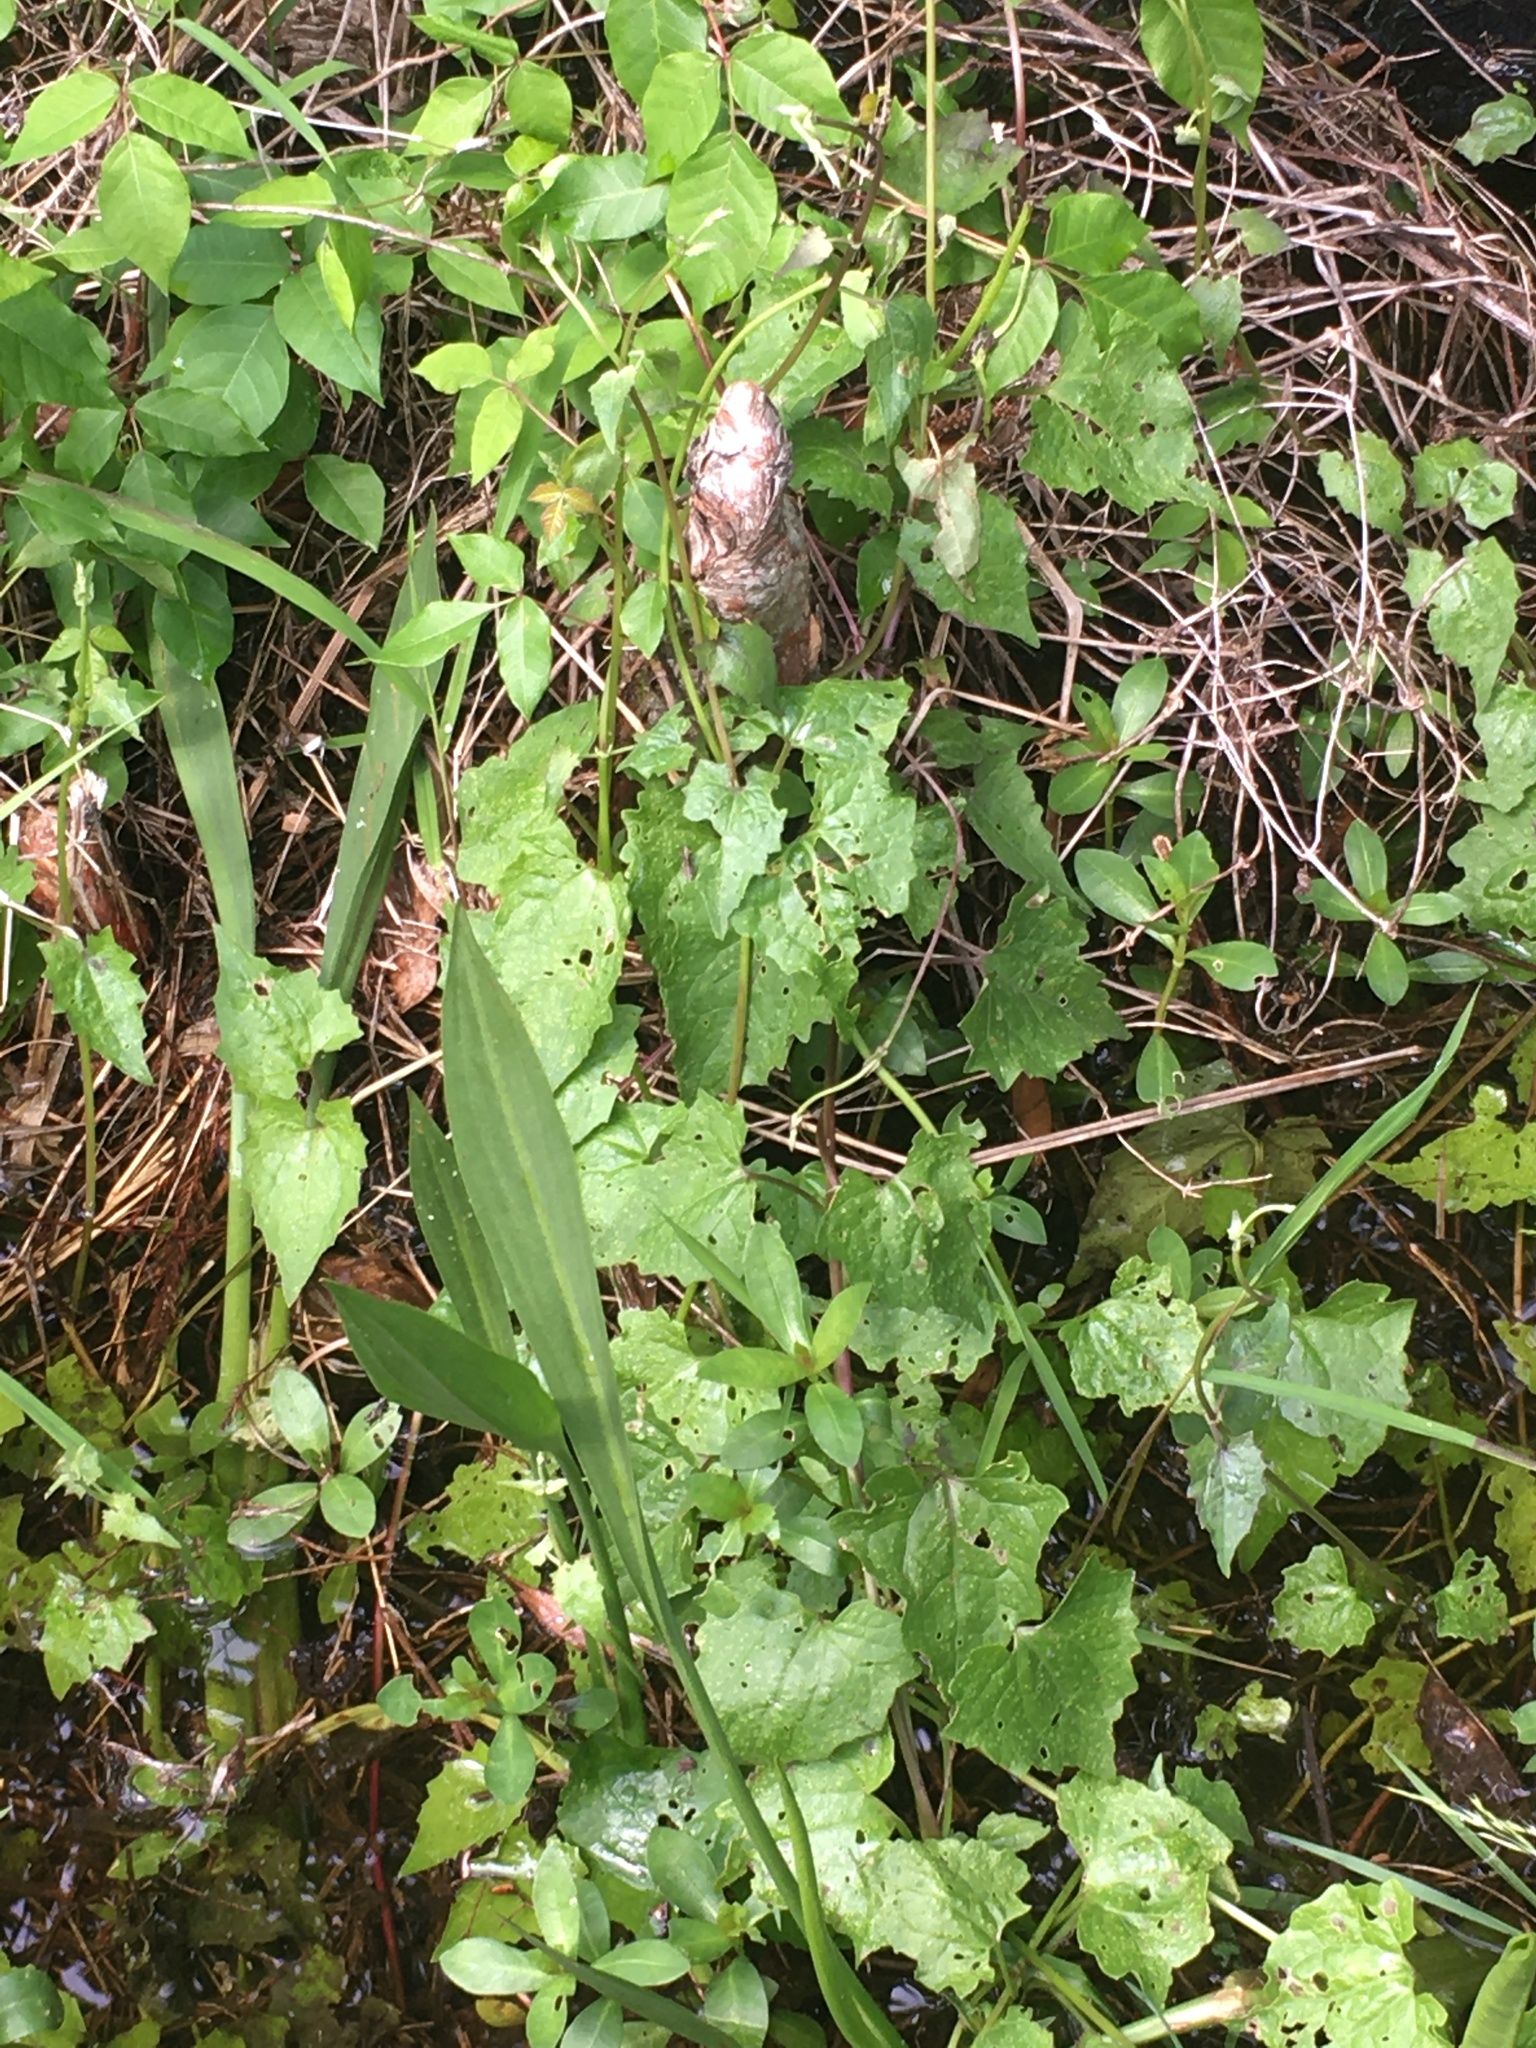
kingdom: Plantae
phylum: Tracheophyta
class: Magnoliopsida
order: Asterales
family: Asteraceae
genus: Mikania
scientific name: Mikania scandens
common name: Climbing hempvine
